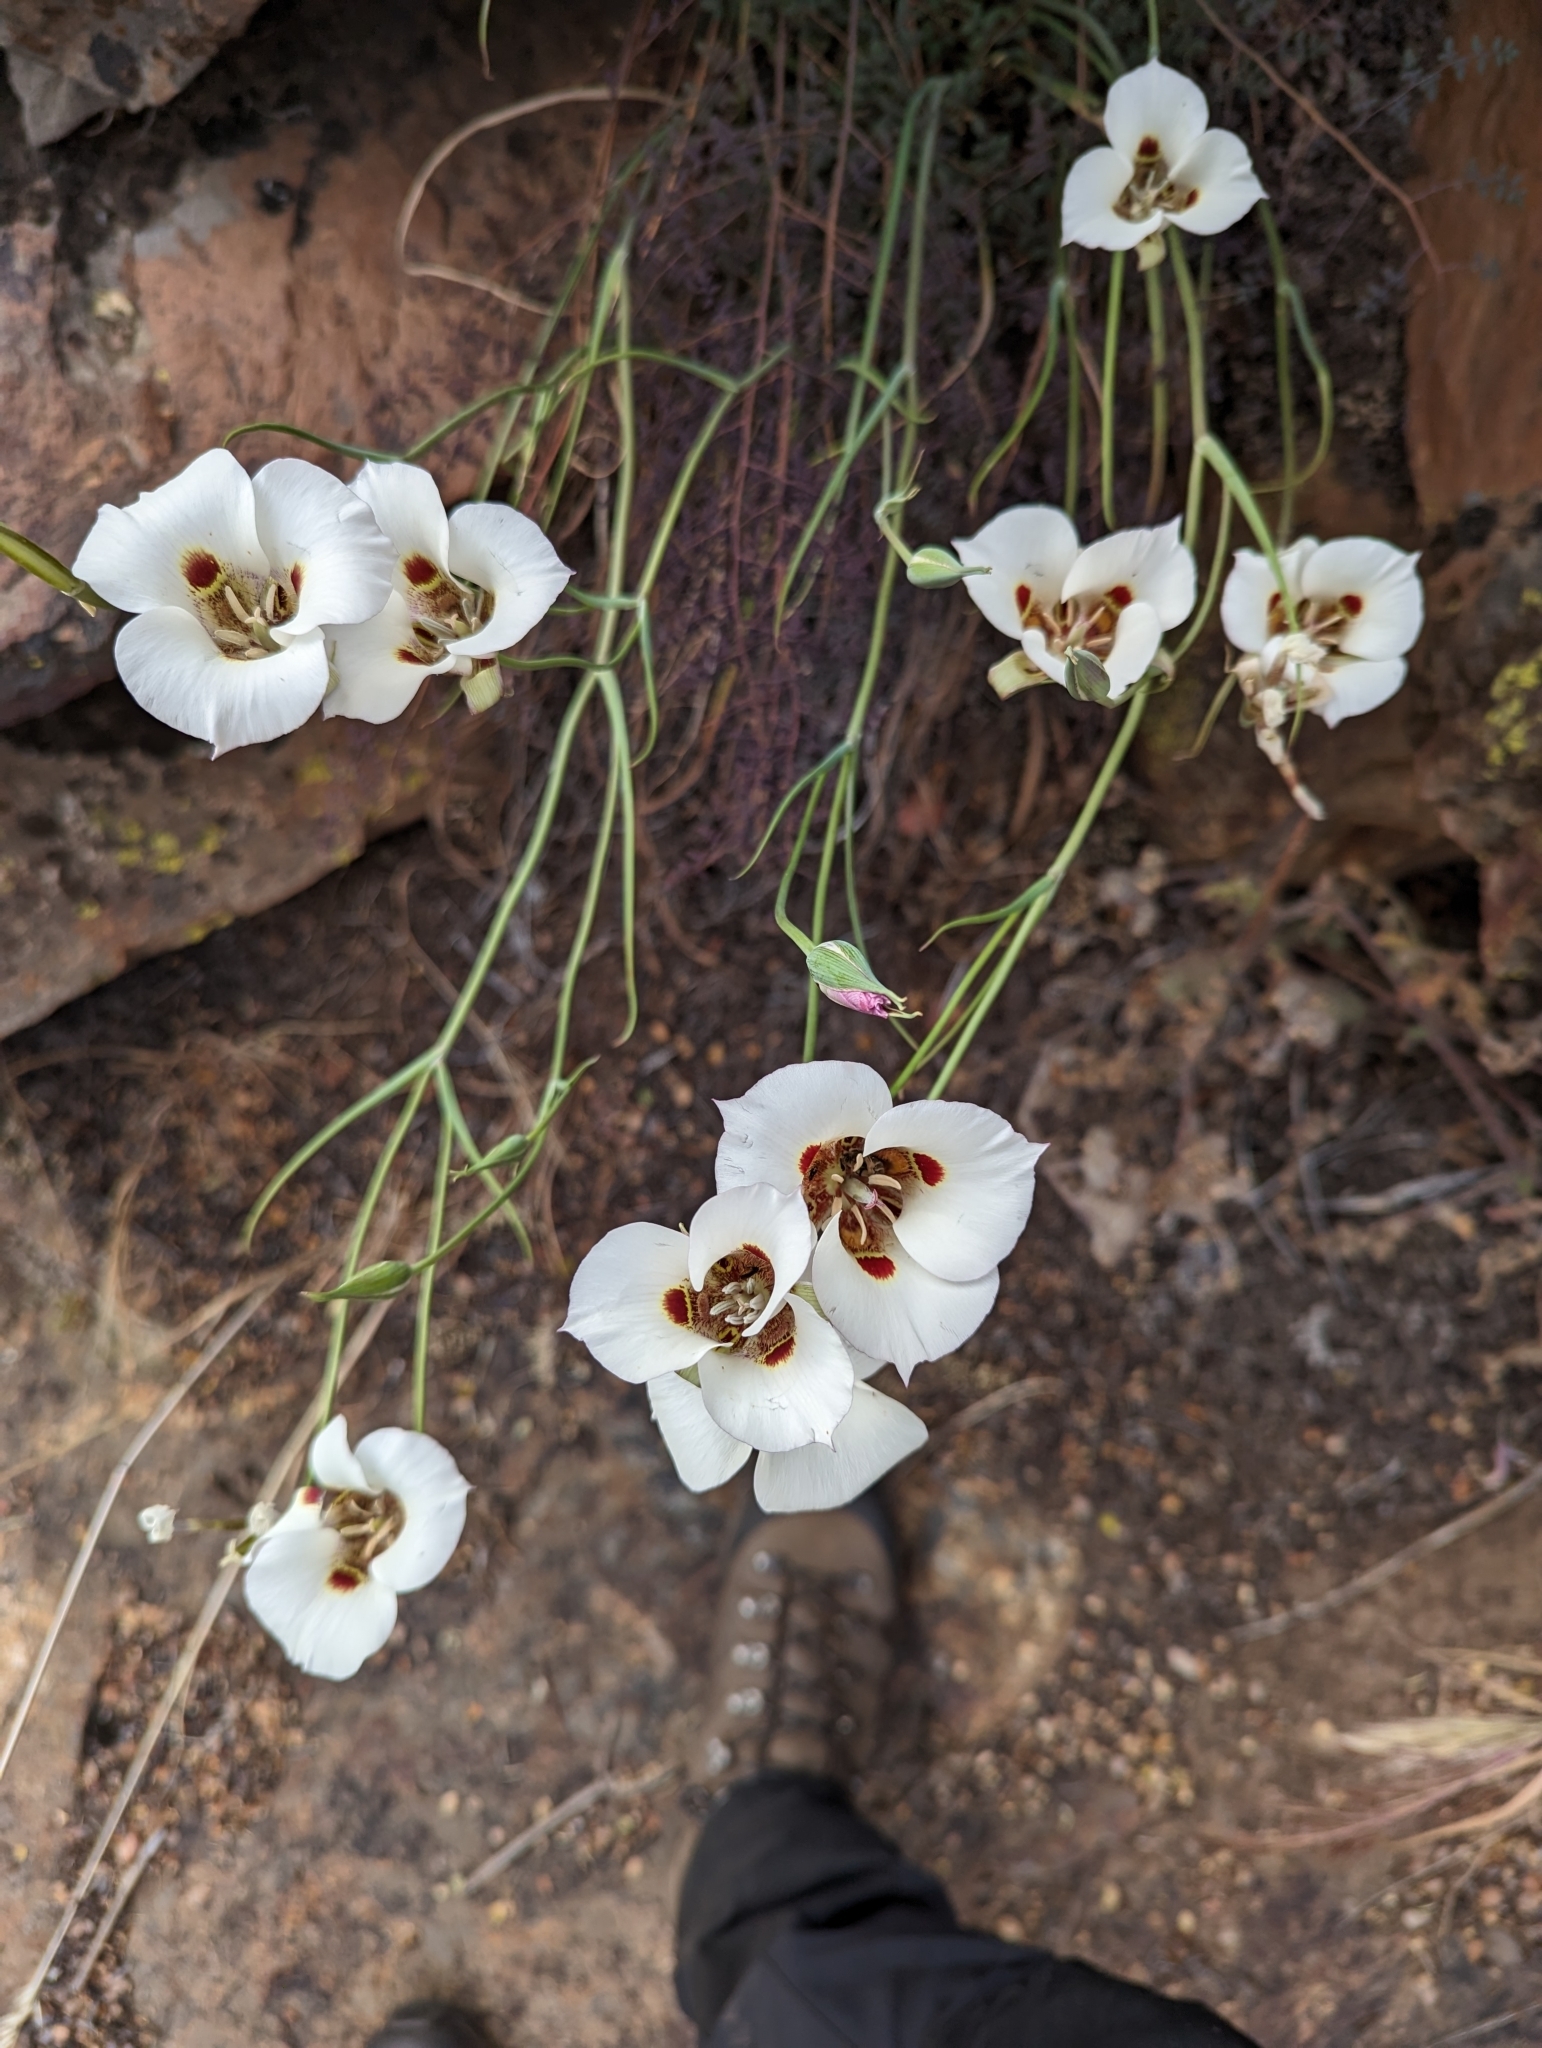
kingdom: Plantae
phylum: Tracheophyta
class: Liliopsida
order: Liliales
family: Liliaceae
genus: Calochortus
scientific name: Calochortus venustus
